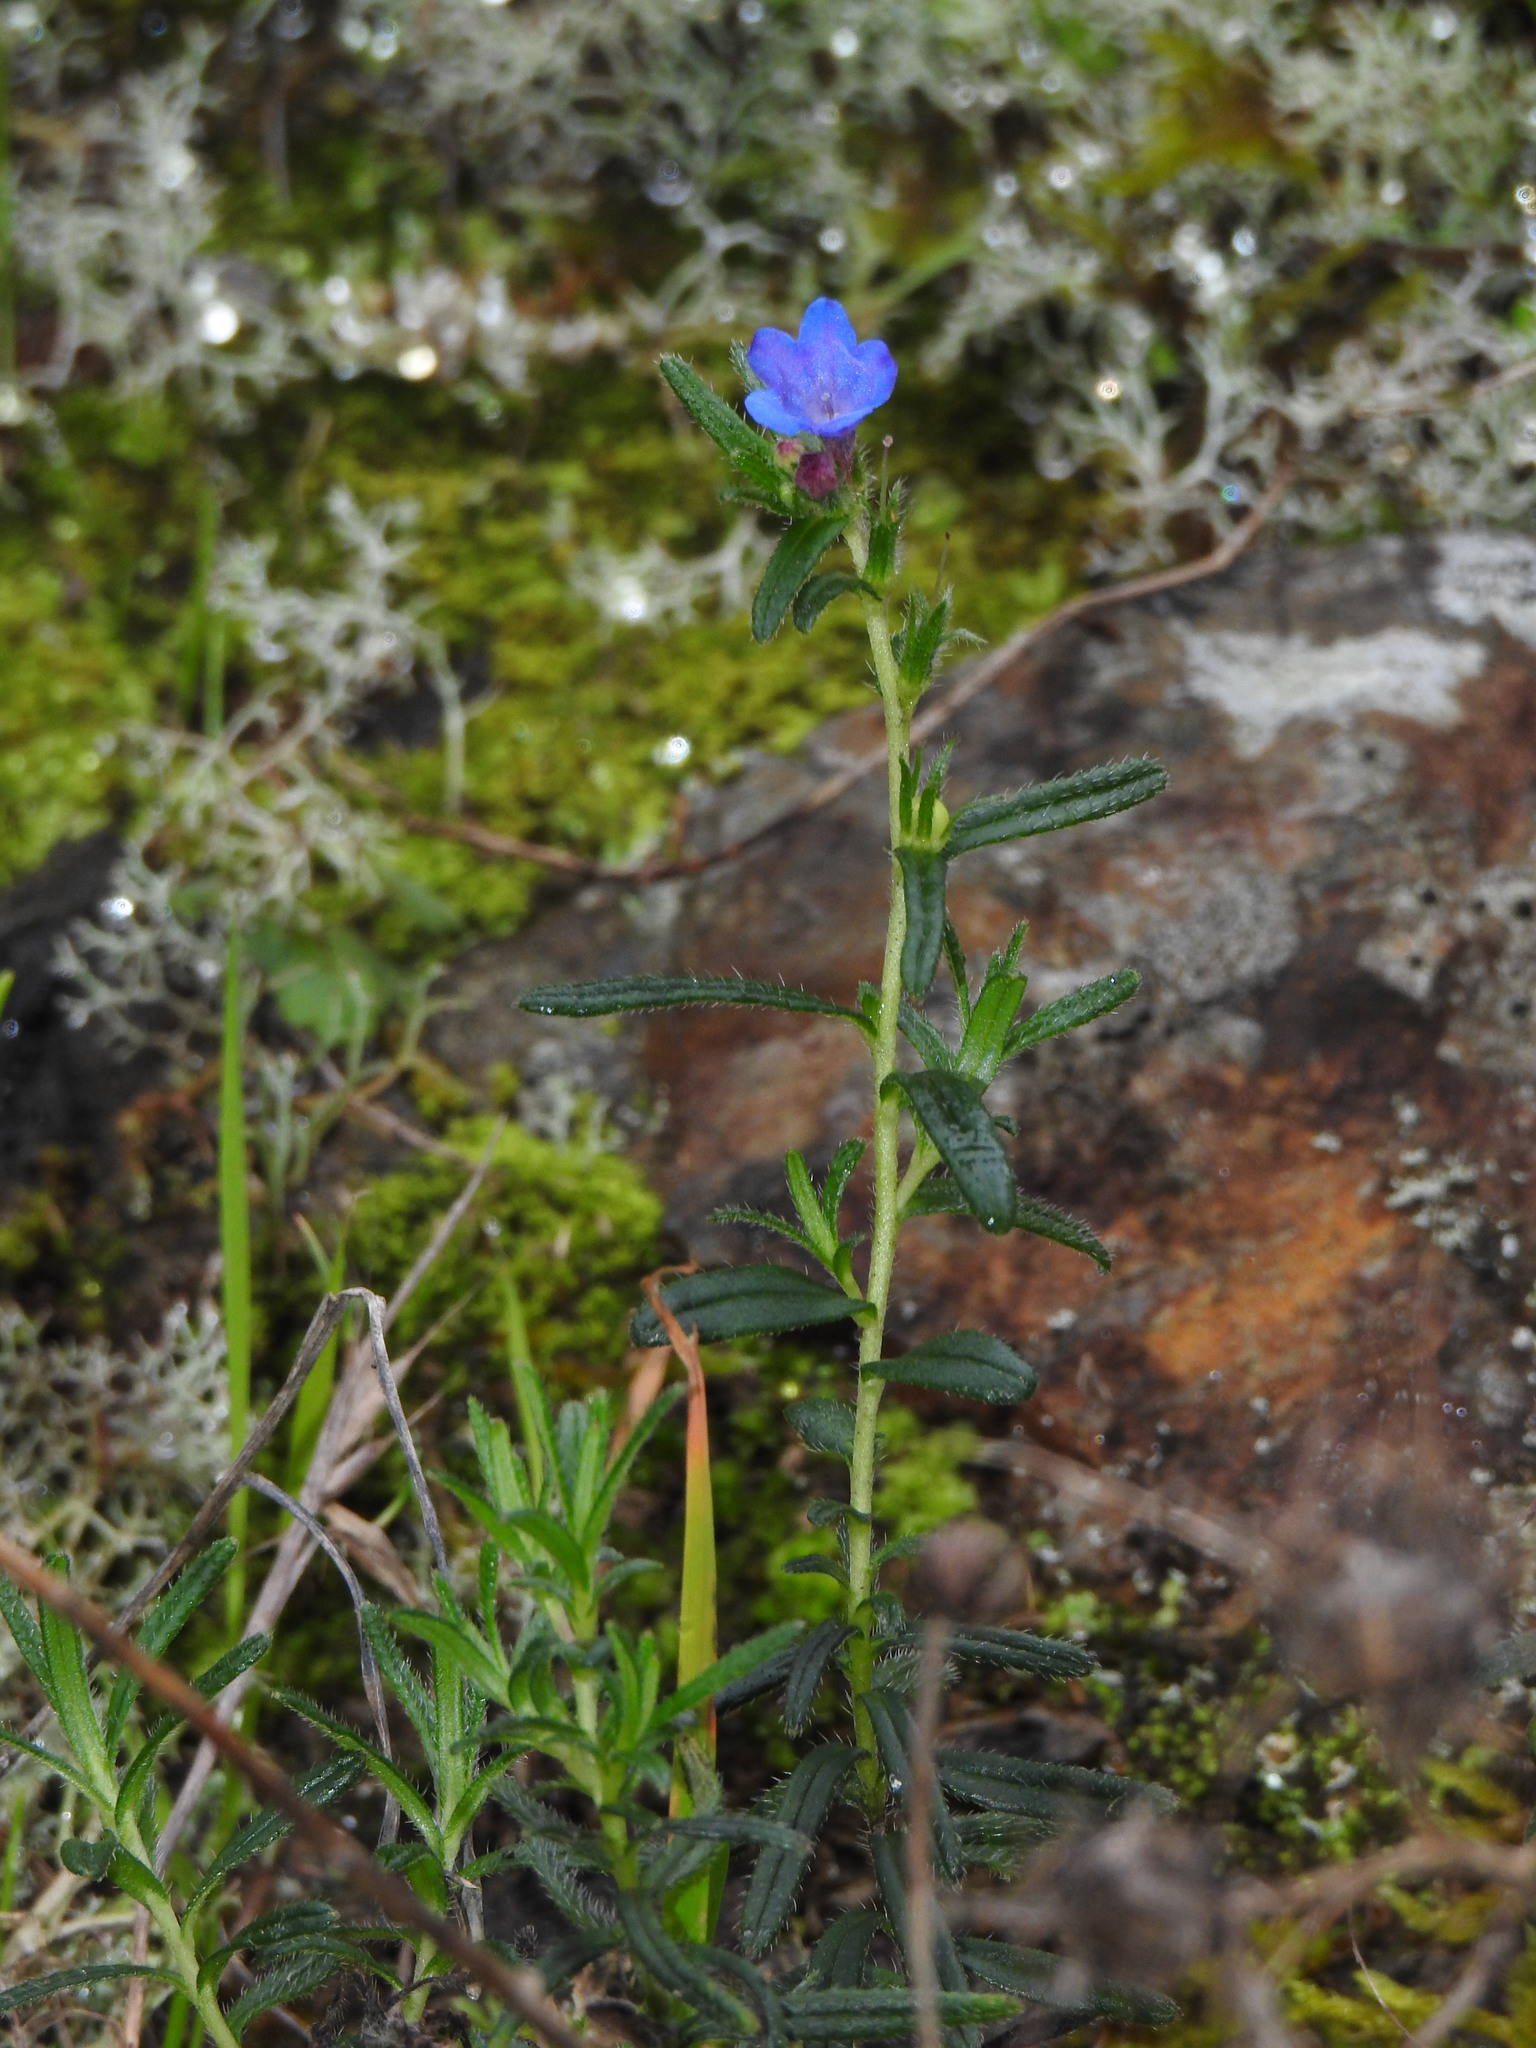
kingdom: Plantae
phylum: Tracheophyta
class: Magnoliopsida
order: Boraginales
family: Boraginaceae
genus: Glandora
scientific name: Glandora prostrata
